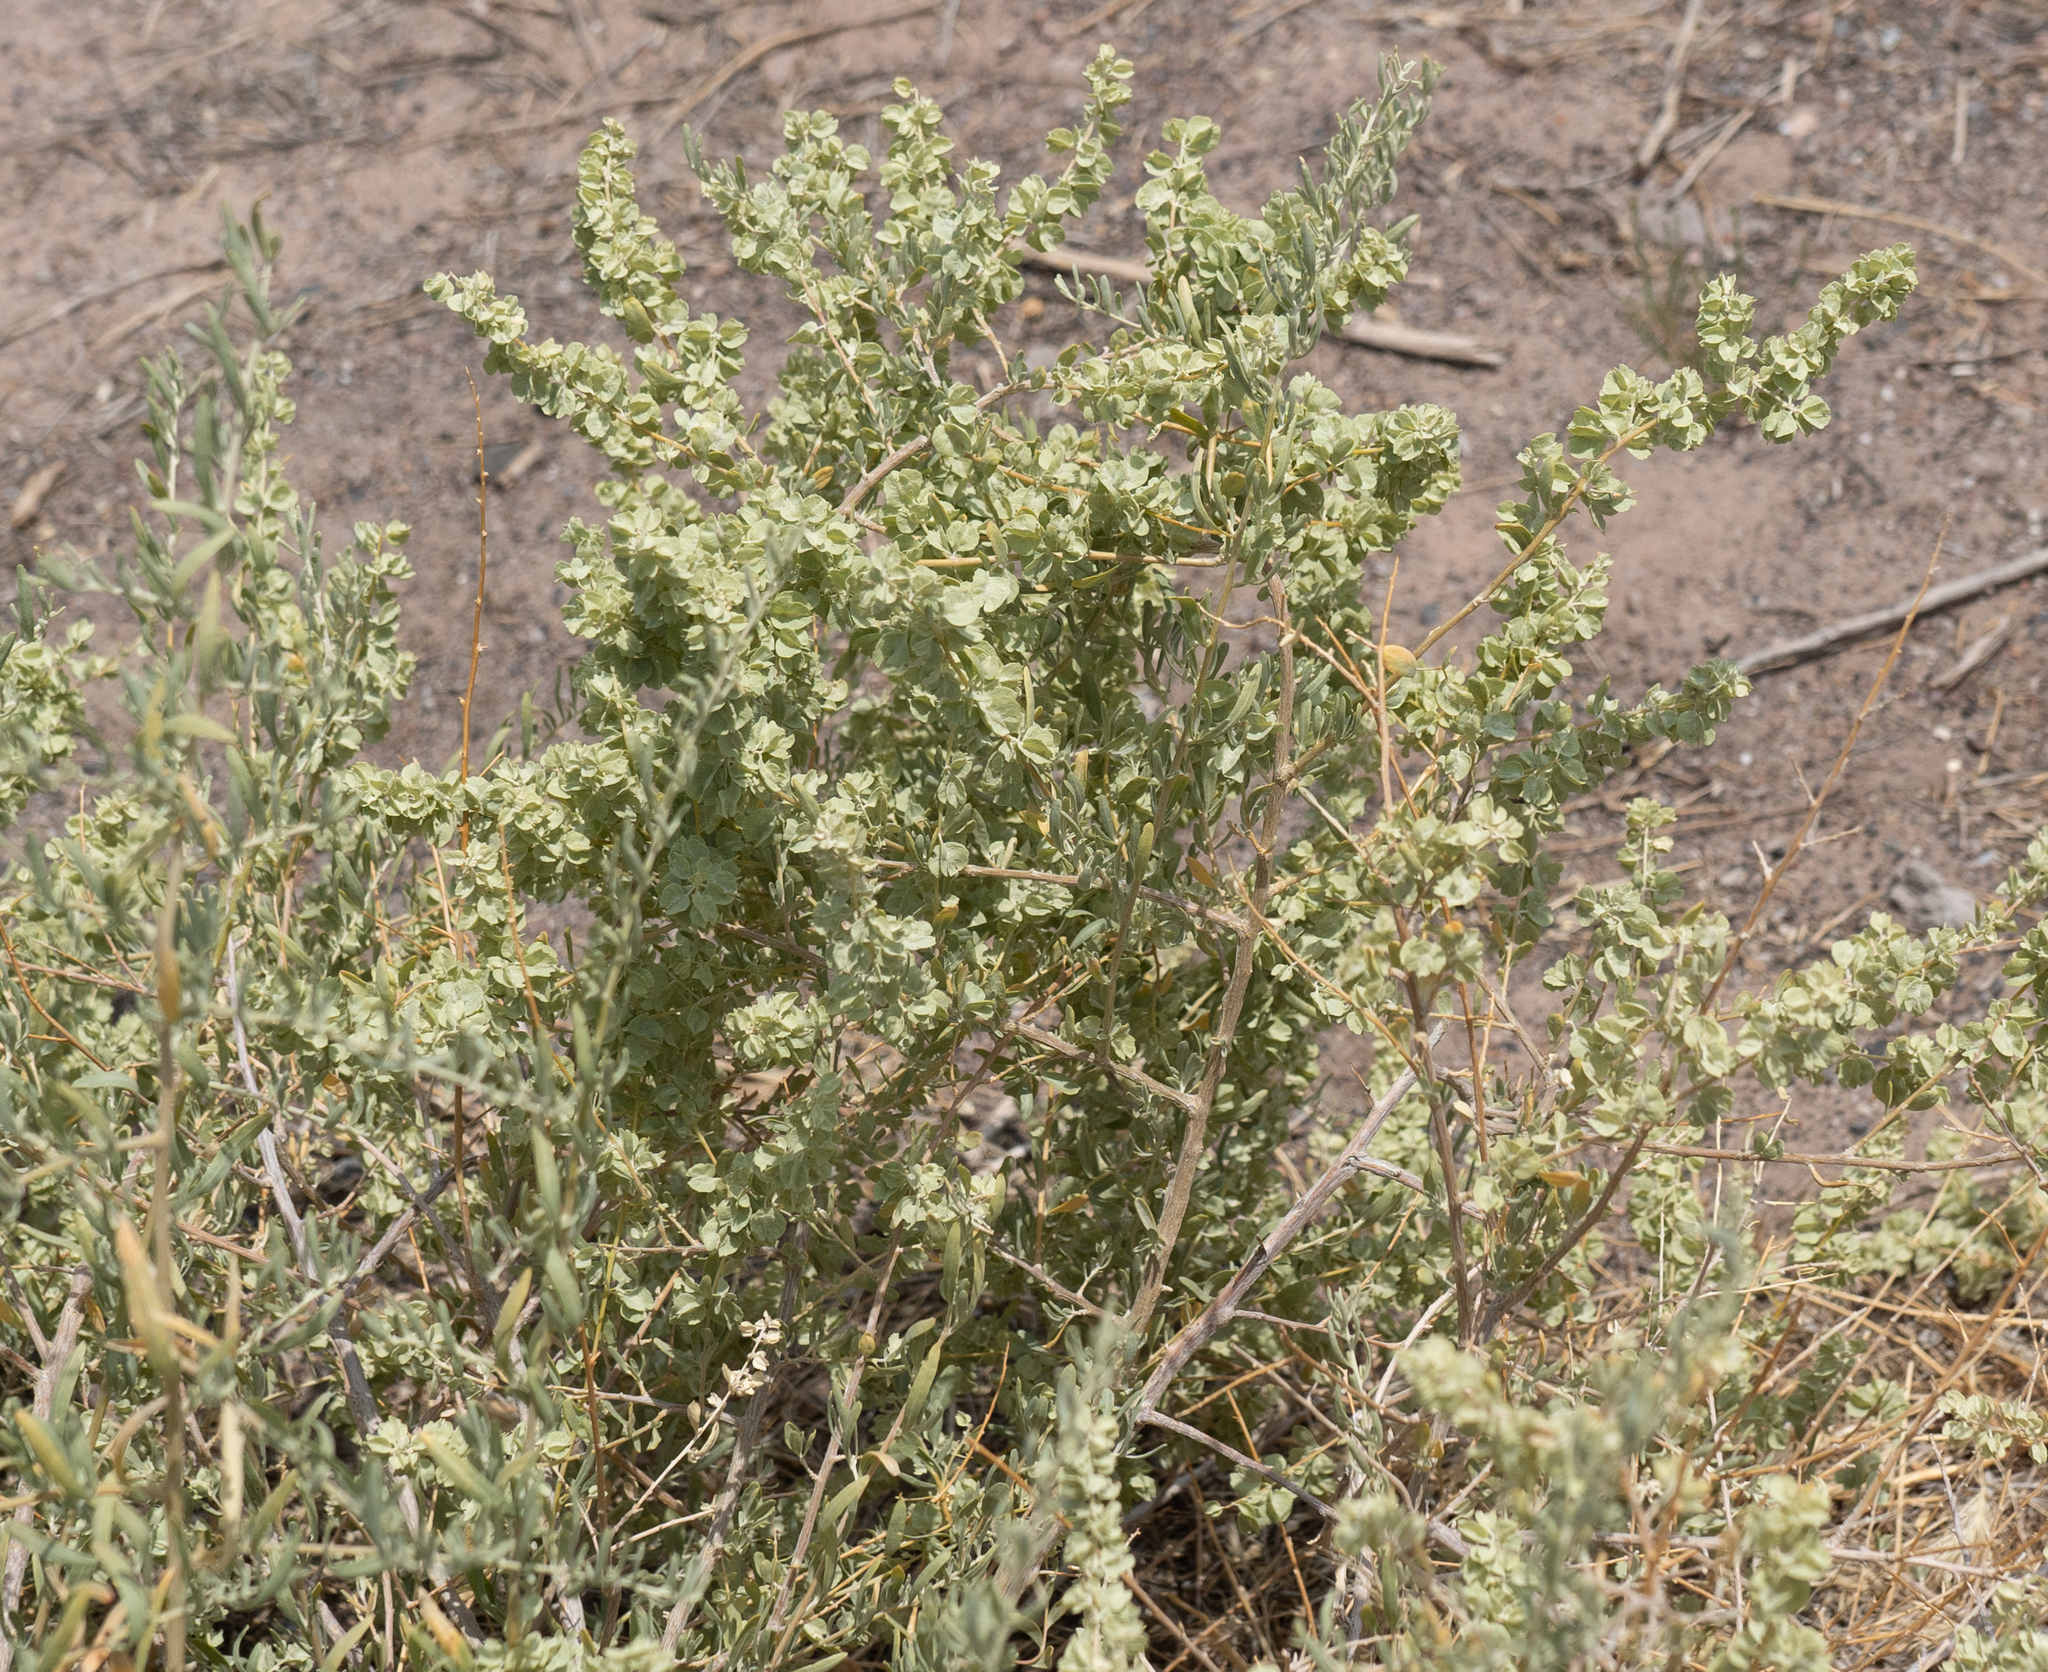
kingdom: Plantae
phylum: Tracheophyta
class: Magnoliopsida
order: Caryophyllales
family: Amaranthaceae
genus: Atriplex
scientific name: Atriplex canescens
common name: Four-wing saltbush
